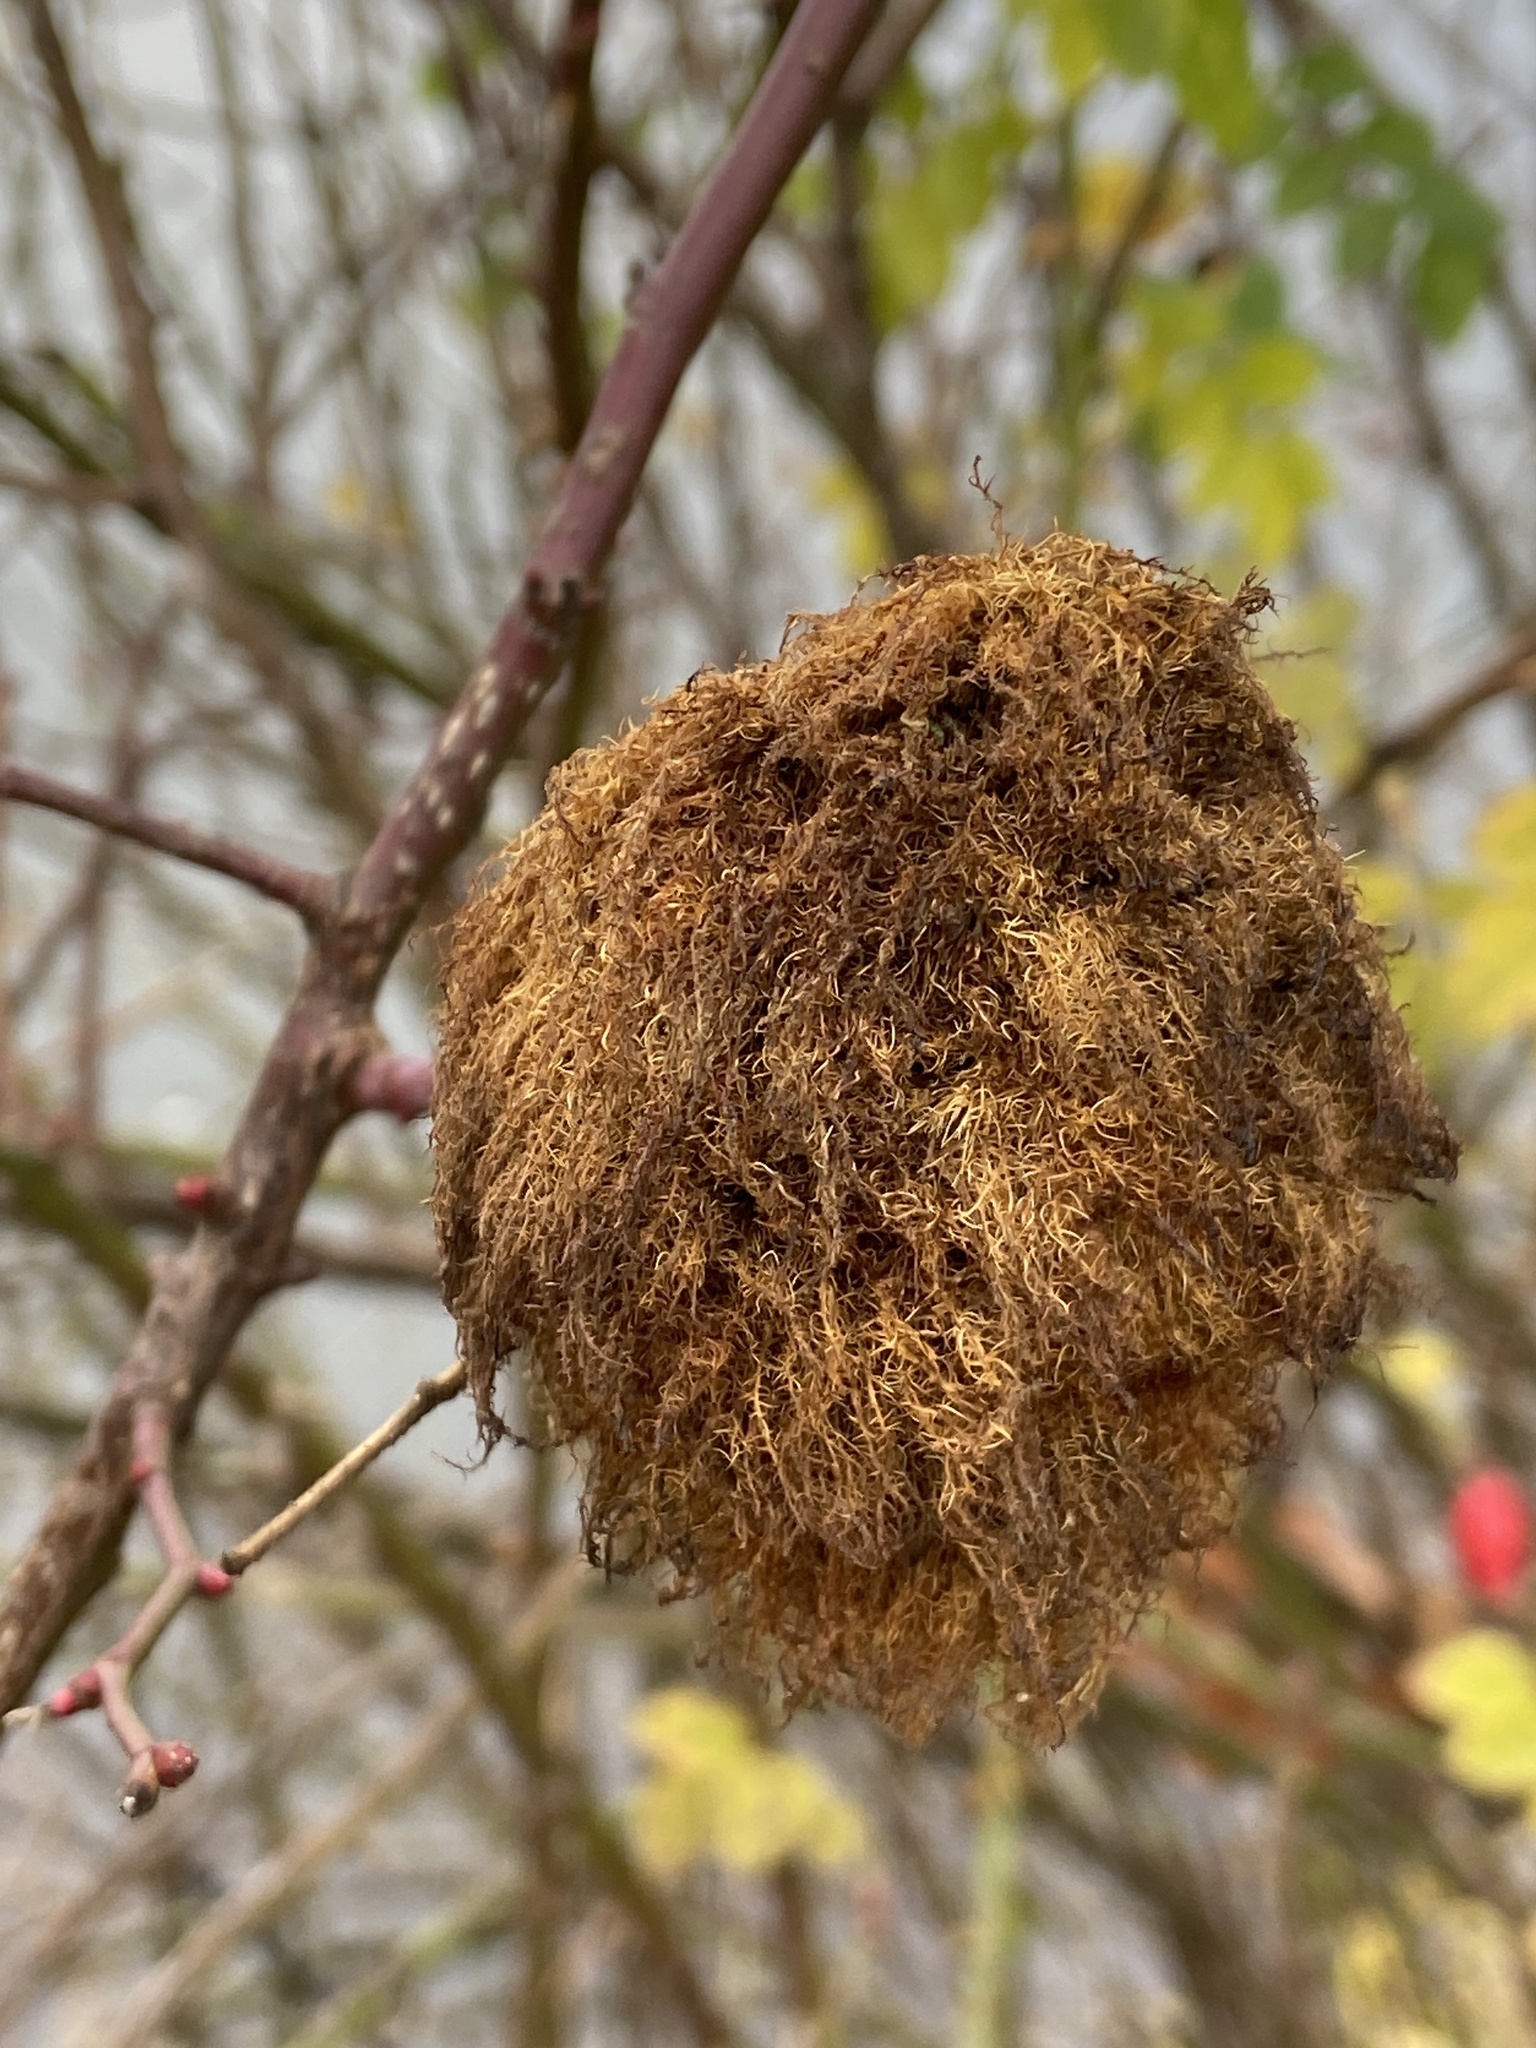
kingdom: Animalia
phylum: Arthropoda
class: Insecta
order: Hymenoptera
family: Cynipidae
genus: Diplolepis
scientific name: Diplolepis rosae
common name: Bedeguar gall
